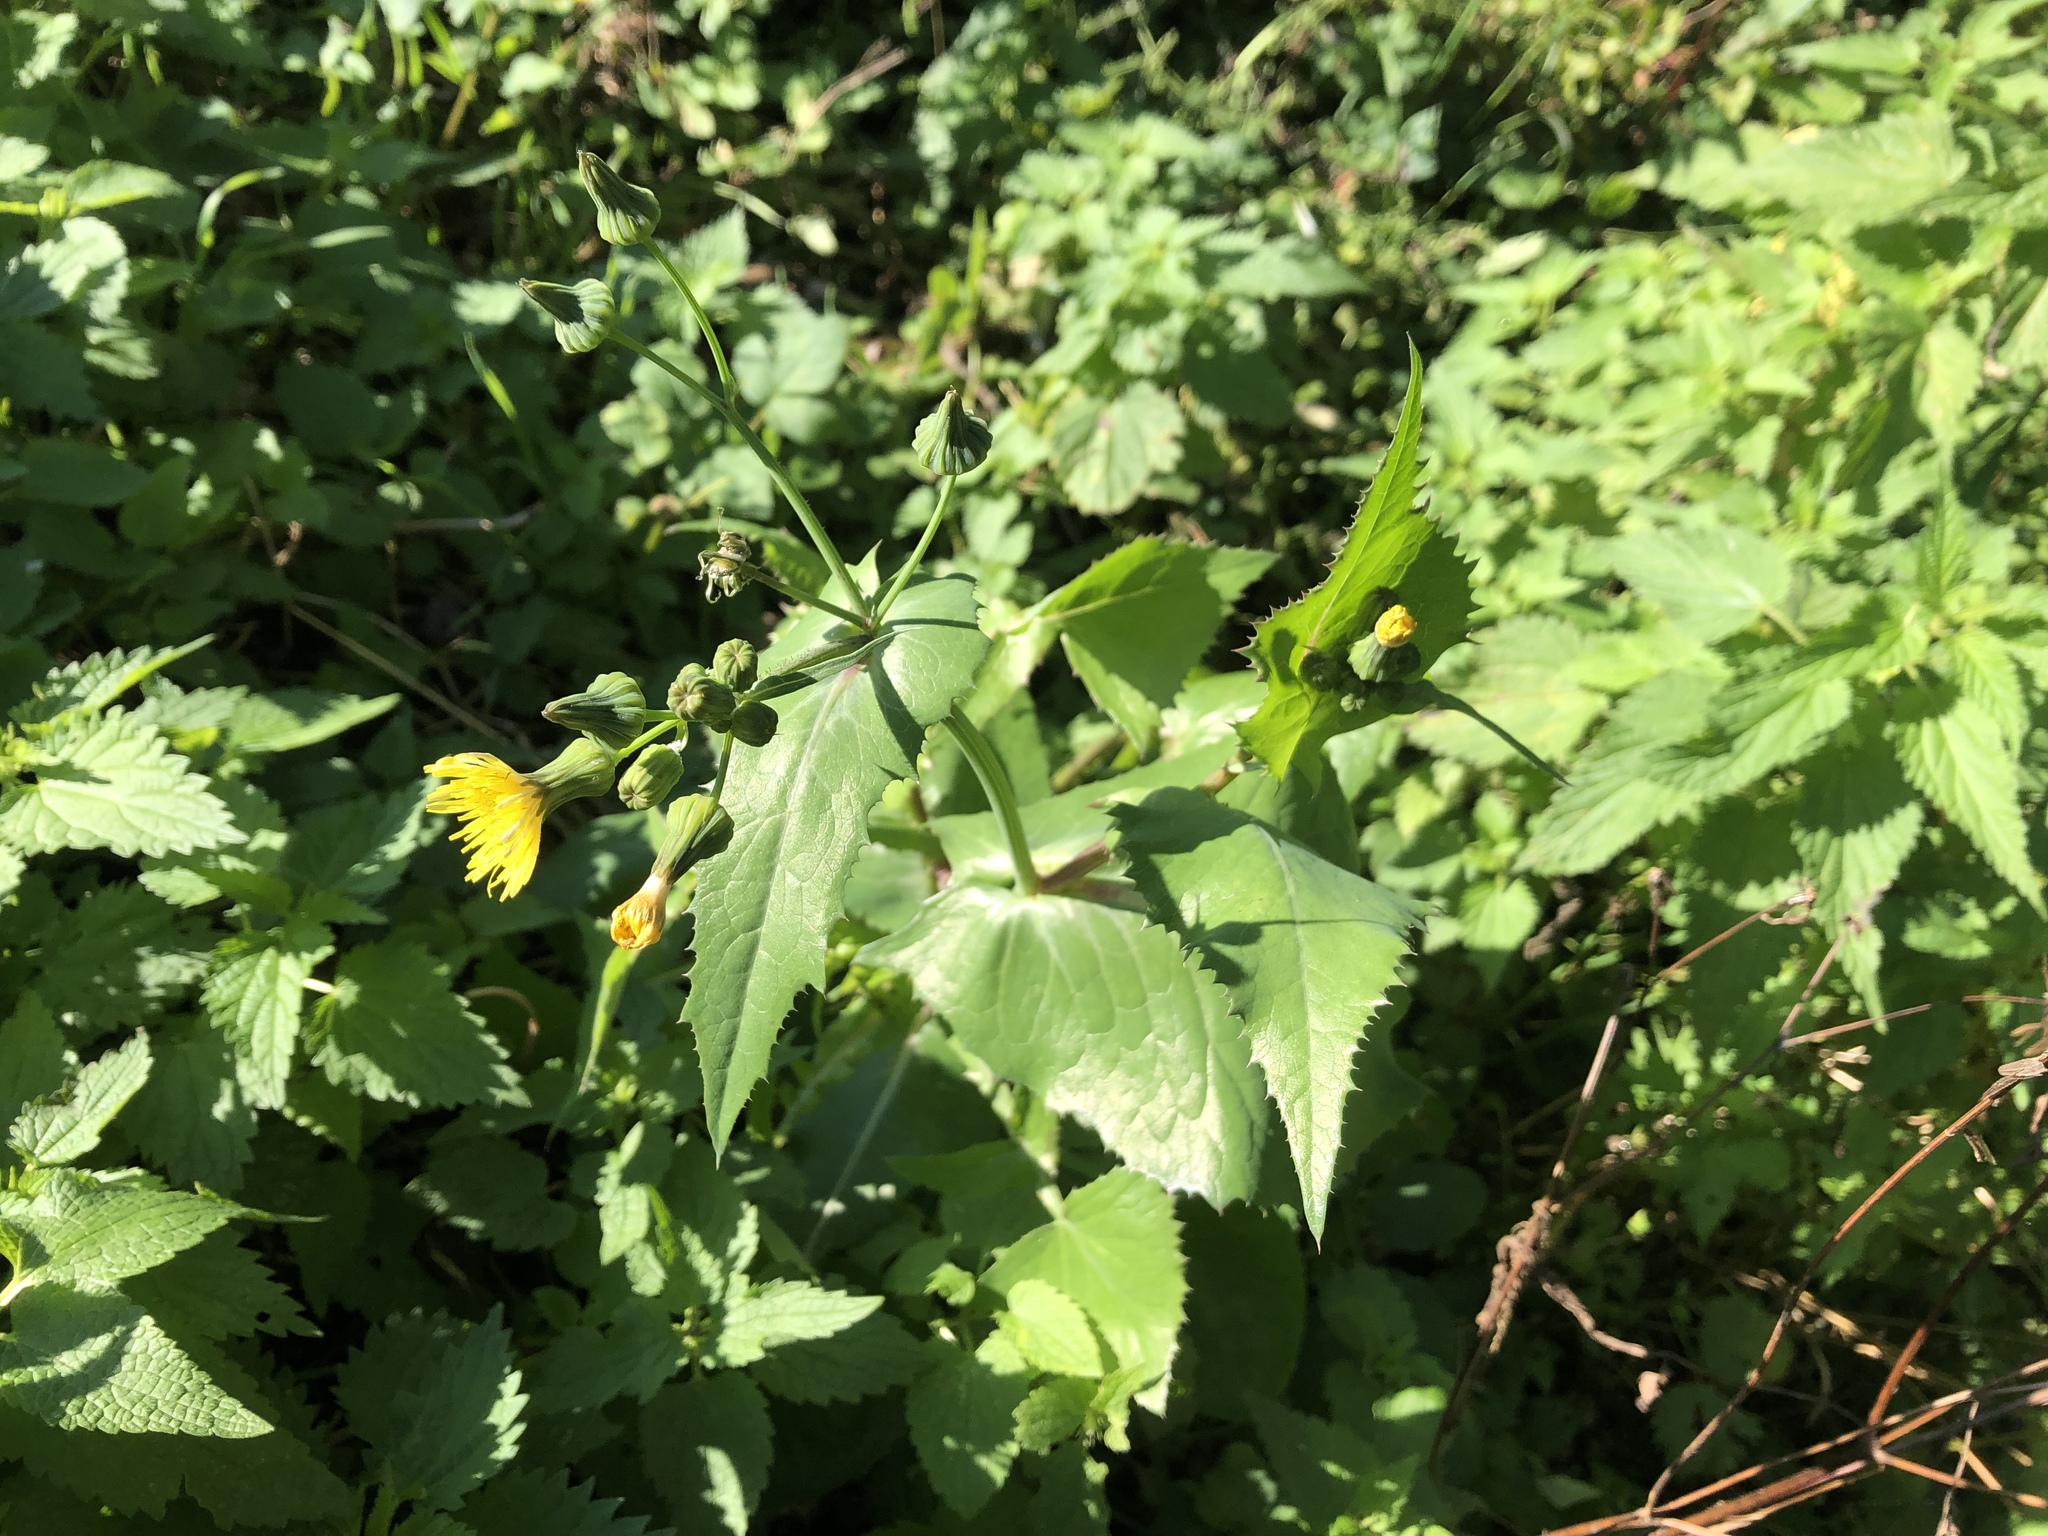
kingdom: Plantae
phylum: Tracheophyta
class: Magnoliopsida
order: Asterales
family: Asteraceae
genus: Sonchus
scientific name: Sonchus oleraceus
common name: Common sowthistle
